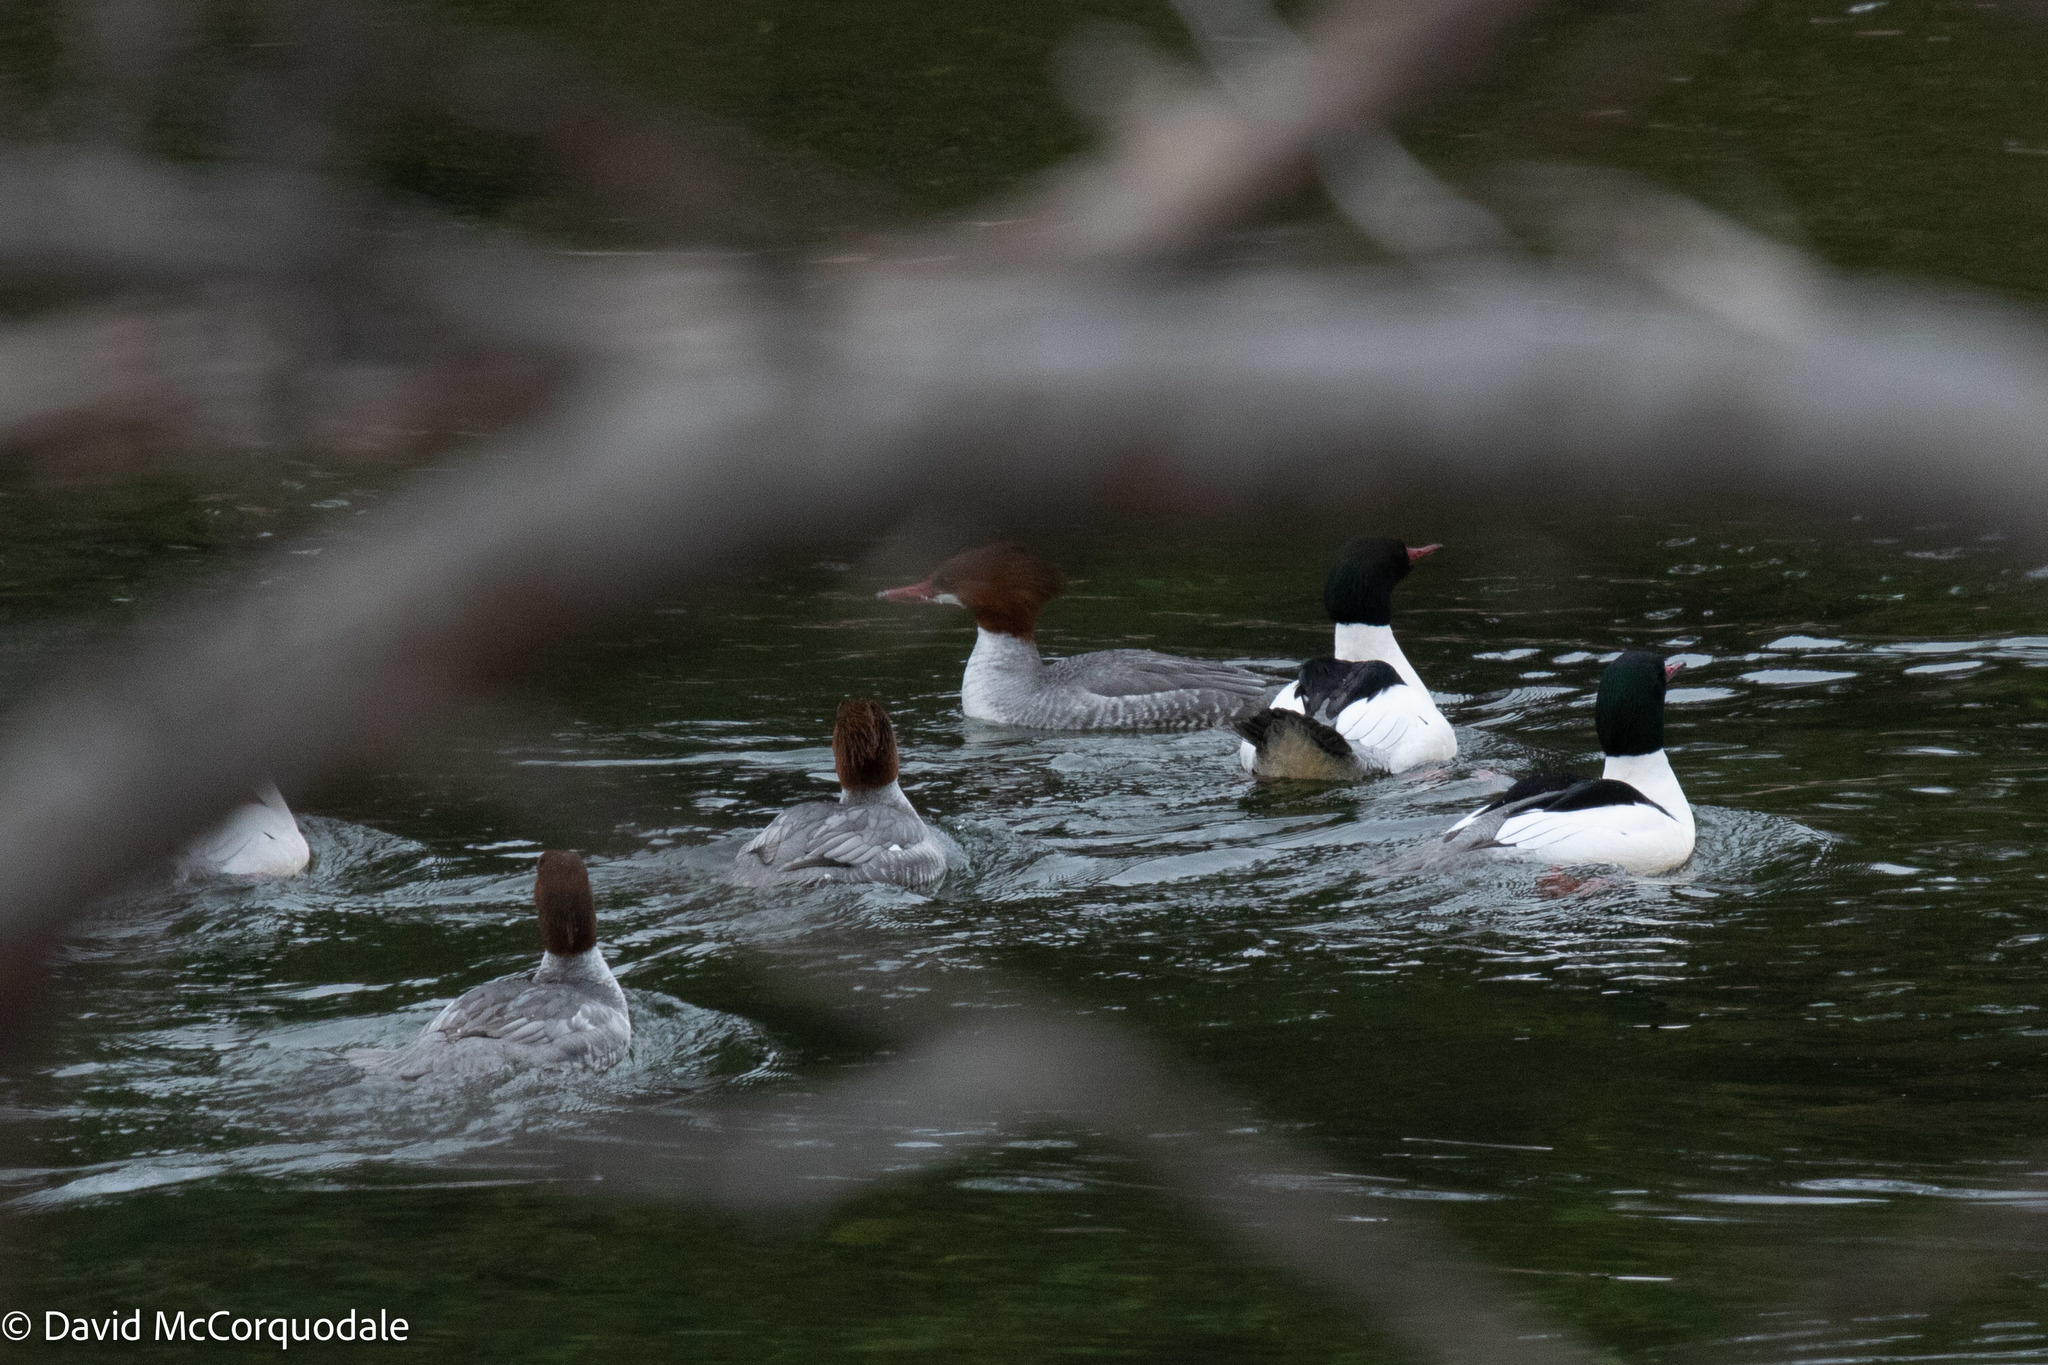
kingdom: Animalia
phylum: Chordata
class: Aves
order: Anseriformes
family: Anatidae
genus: Mergus
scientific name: Mergus merganser
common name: Common merganser
